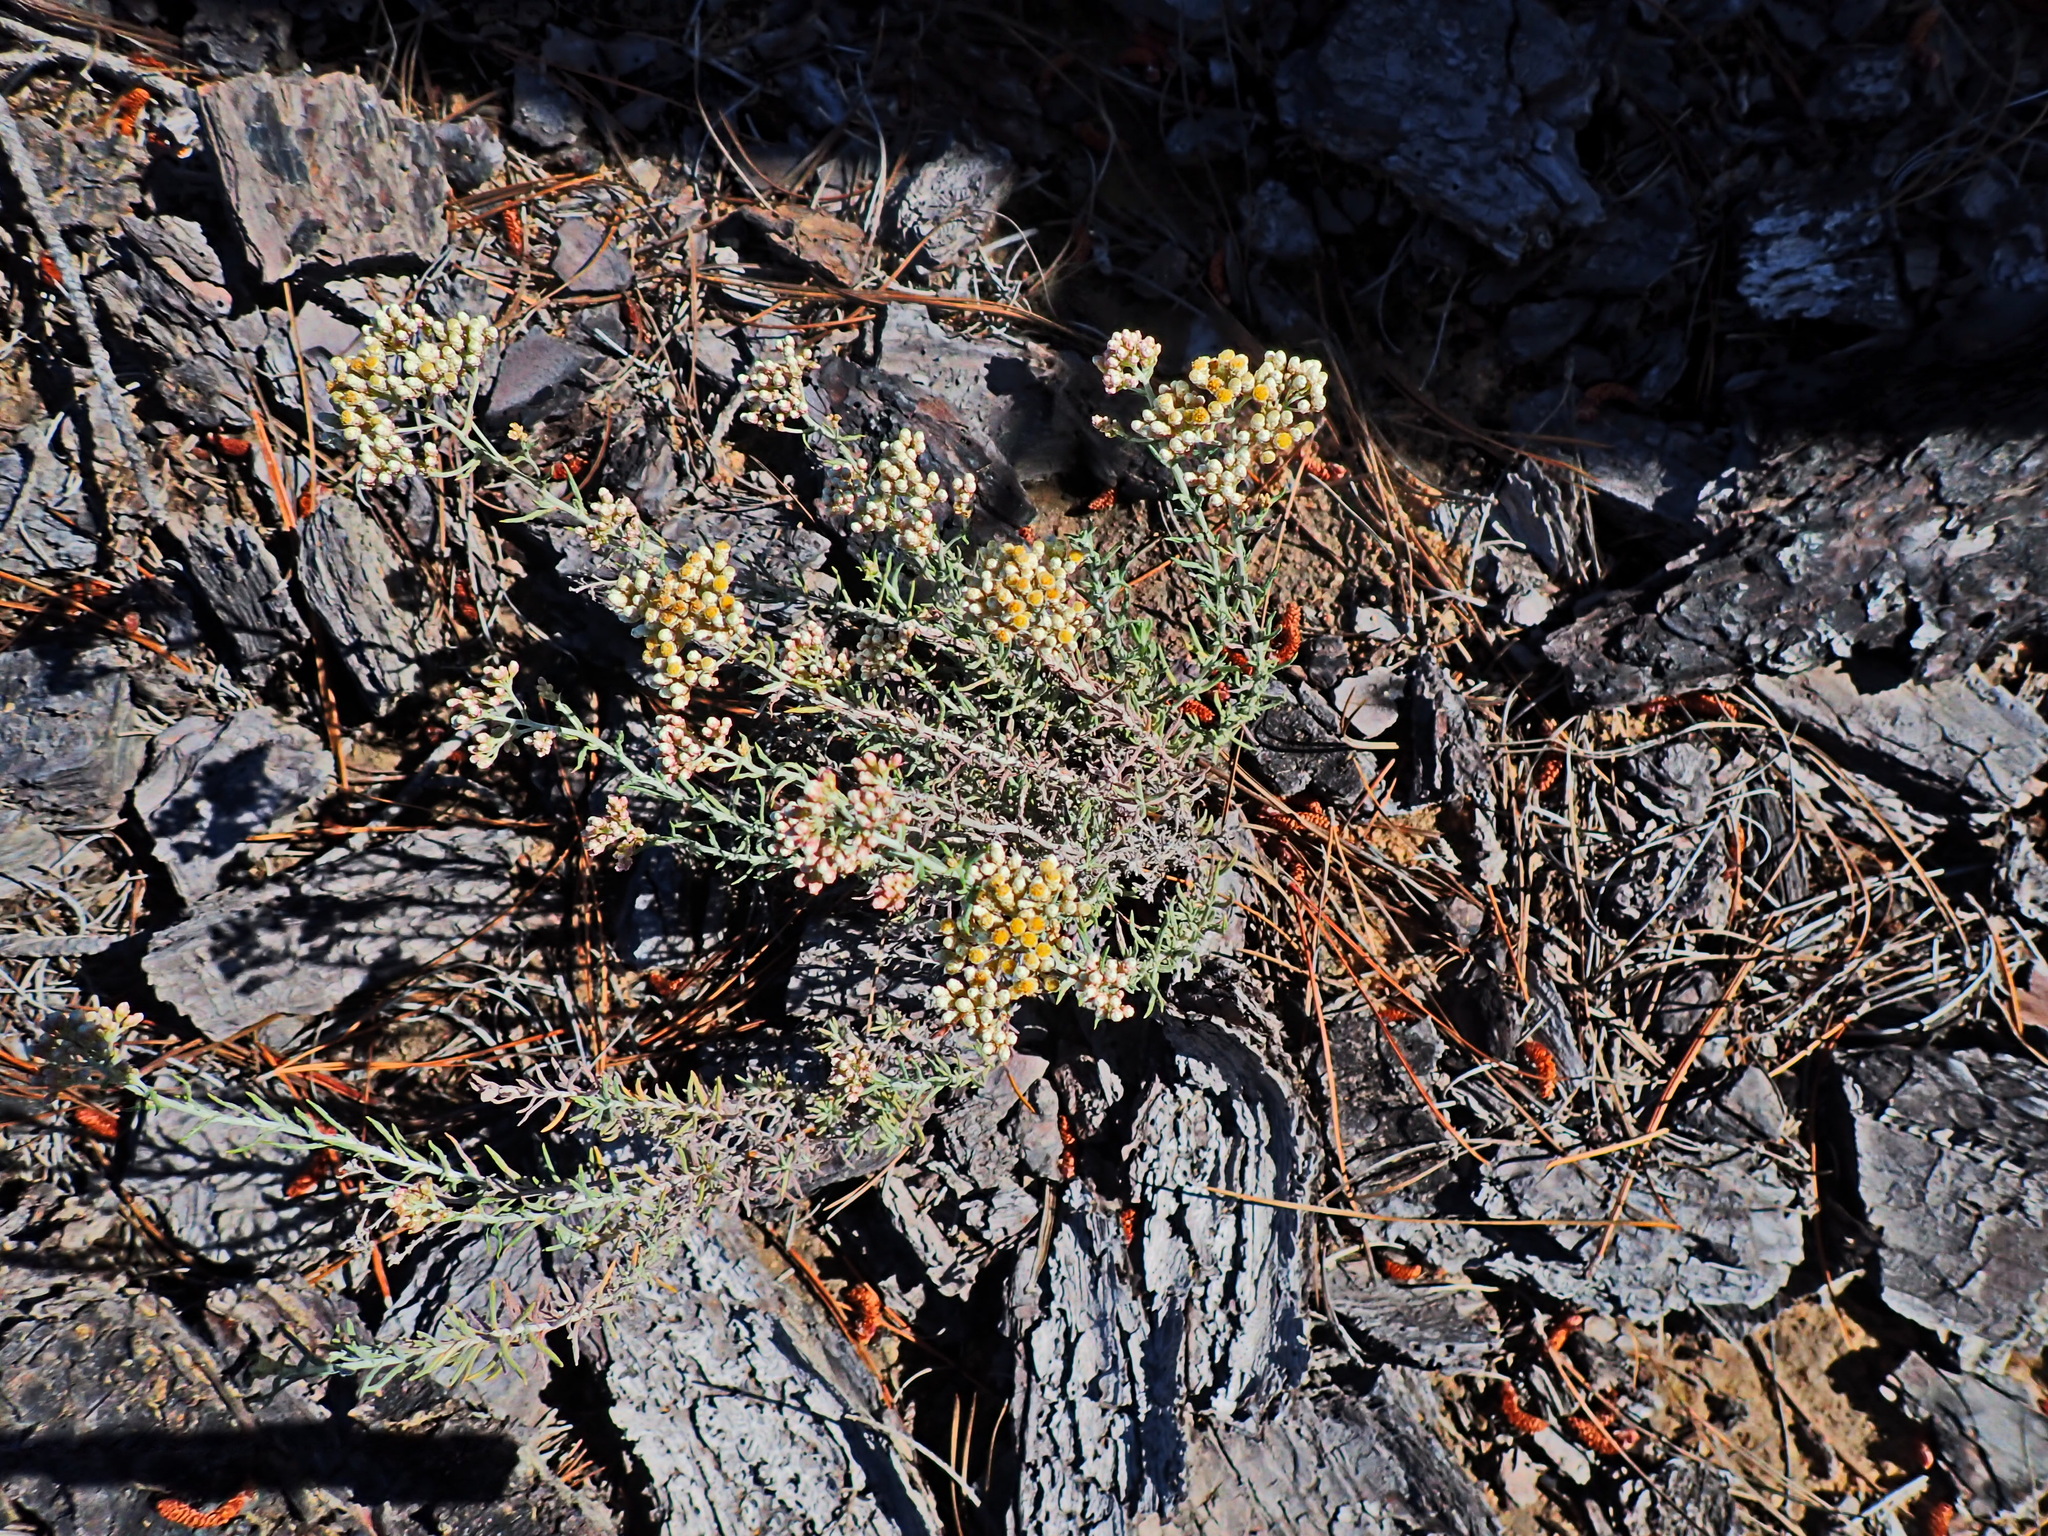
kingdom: Plantae
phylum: Tracheophyta
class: Magnoliopsida
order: Asterales
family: Asteraceae
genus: Helichrysum
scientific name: Helichrysum rosum
